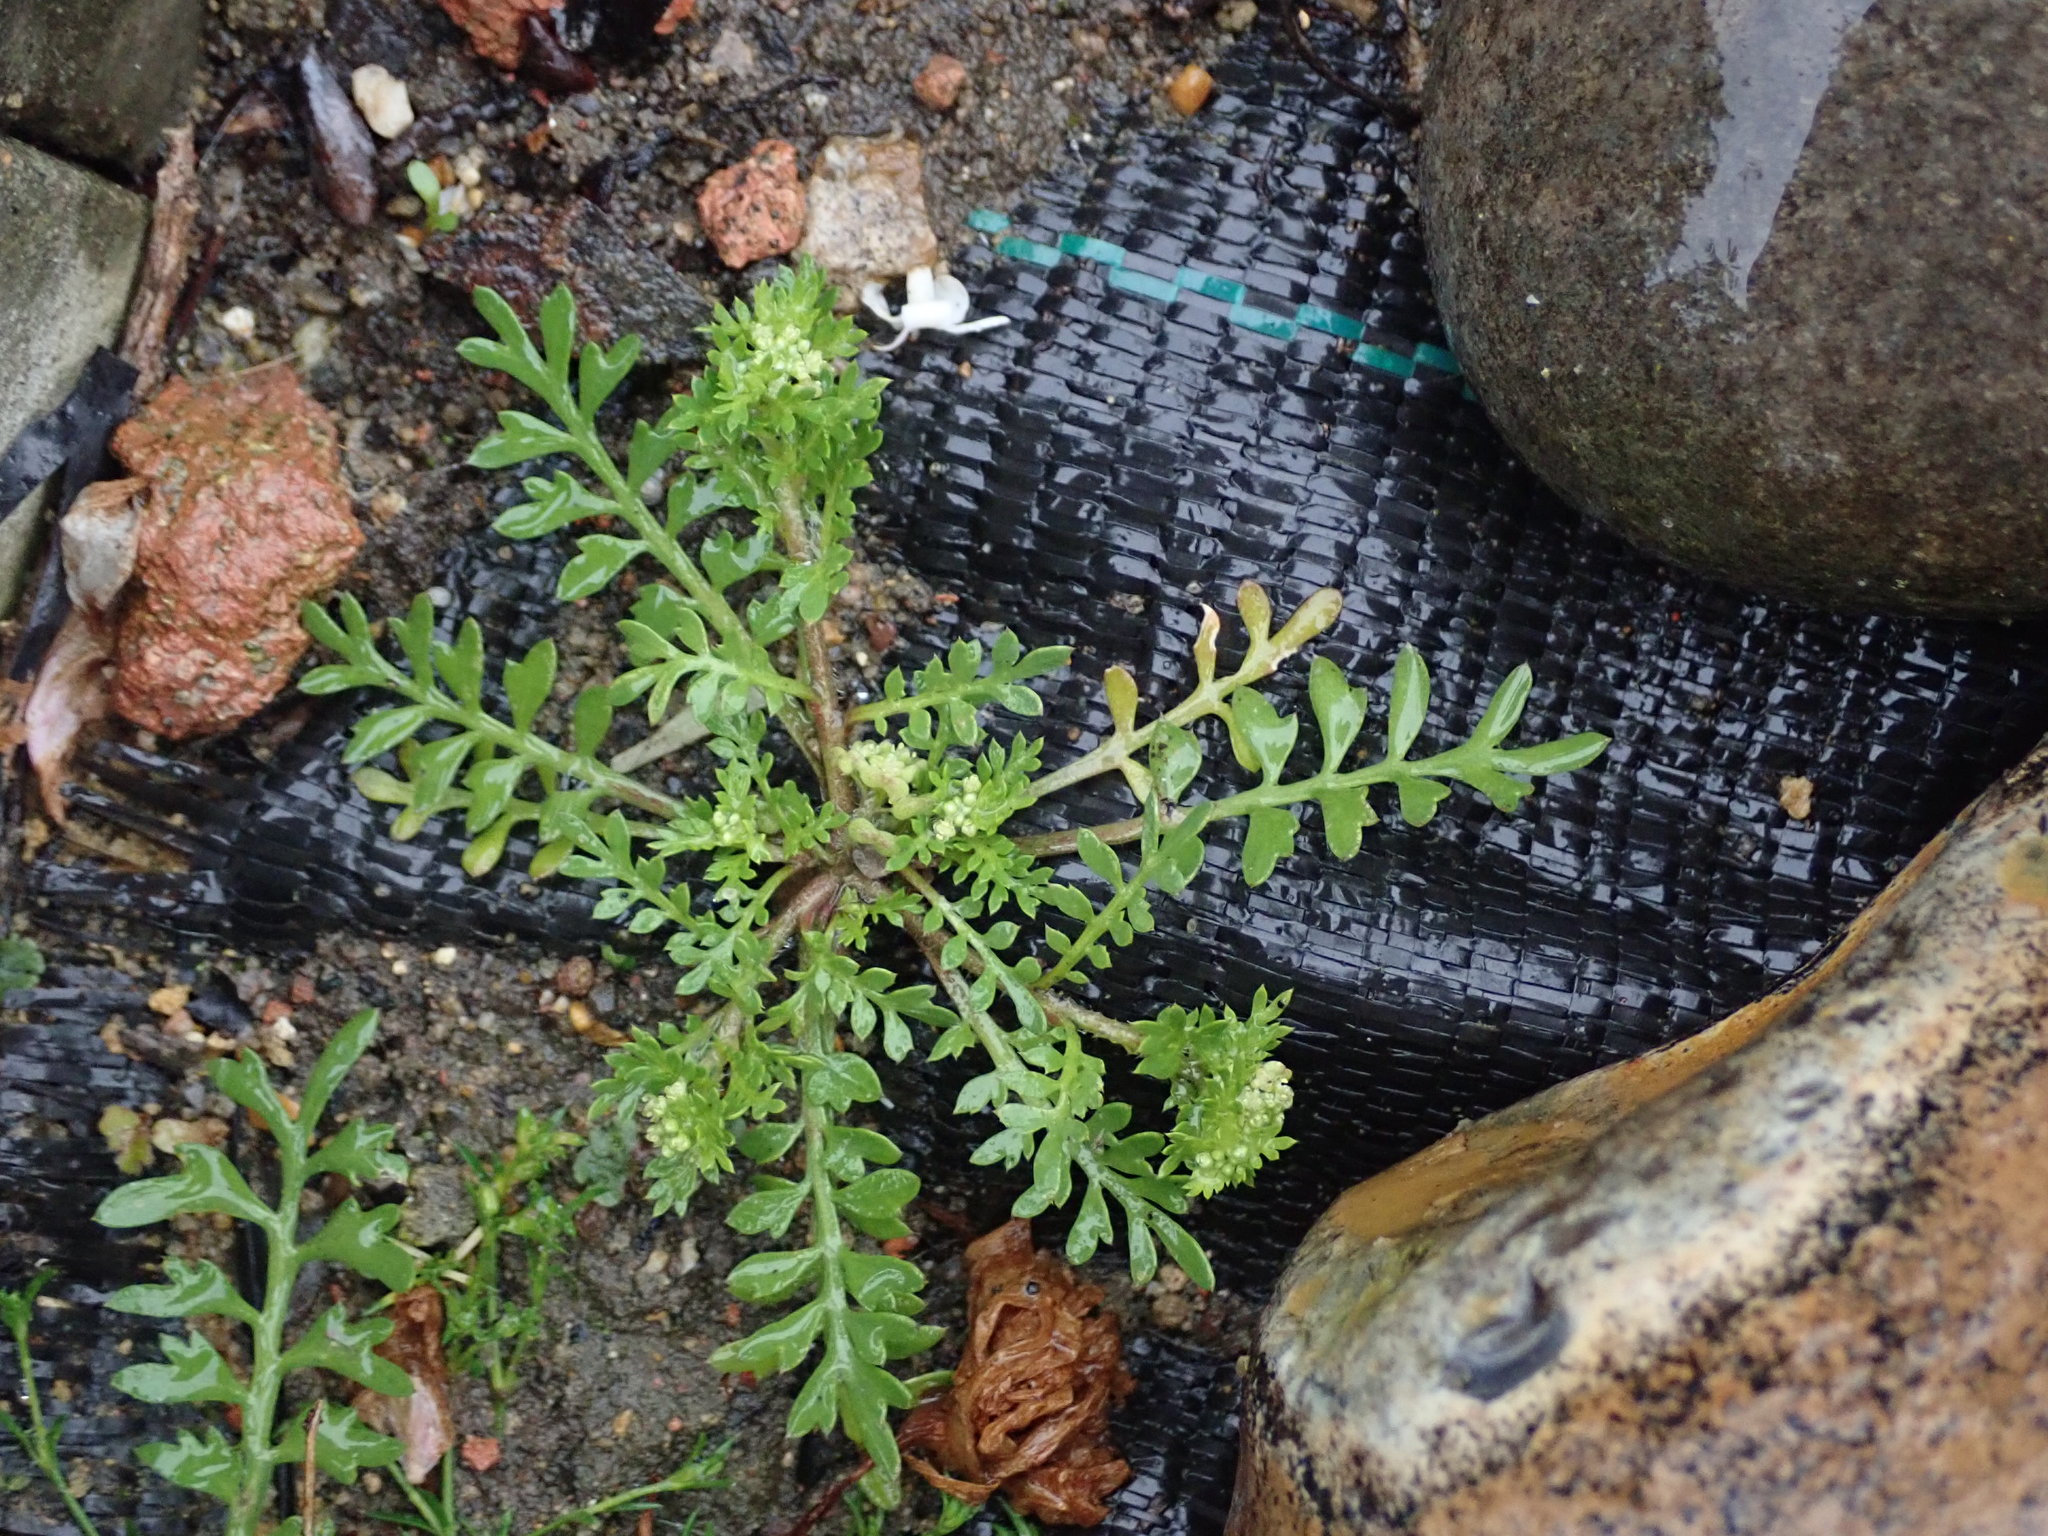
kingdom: Plantae
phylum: Tracheophyta
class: Magnoliopsida
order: Brassicales
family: Brassicaceae
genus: Lepidium
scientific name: Lepidium didymum
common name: Lesser swinecress
